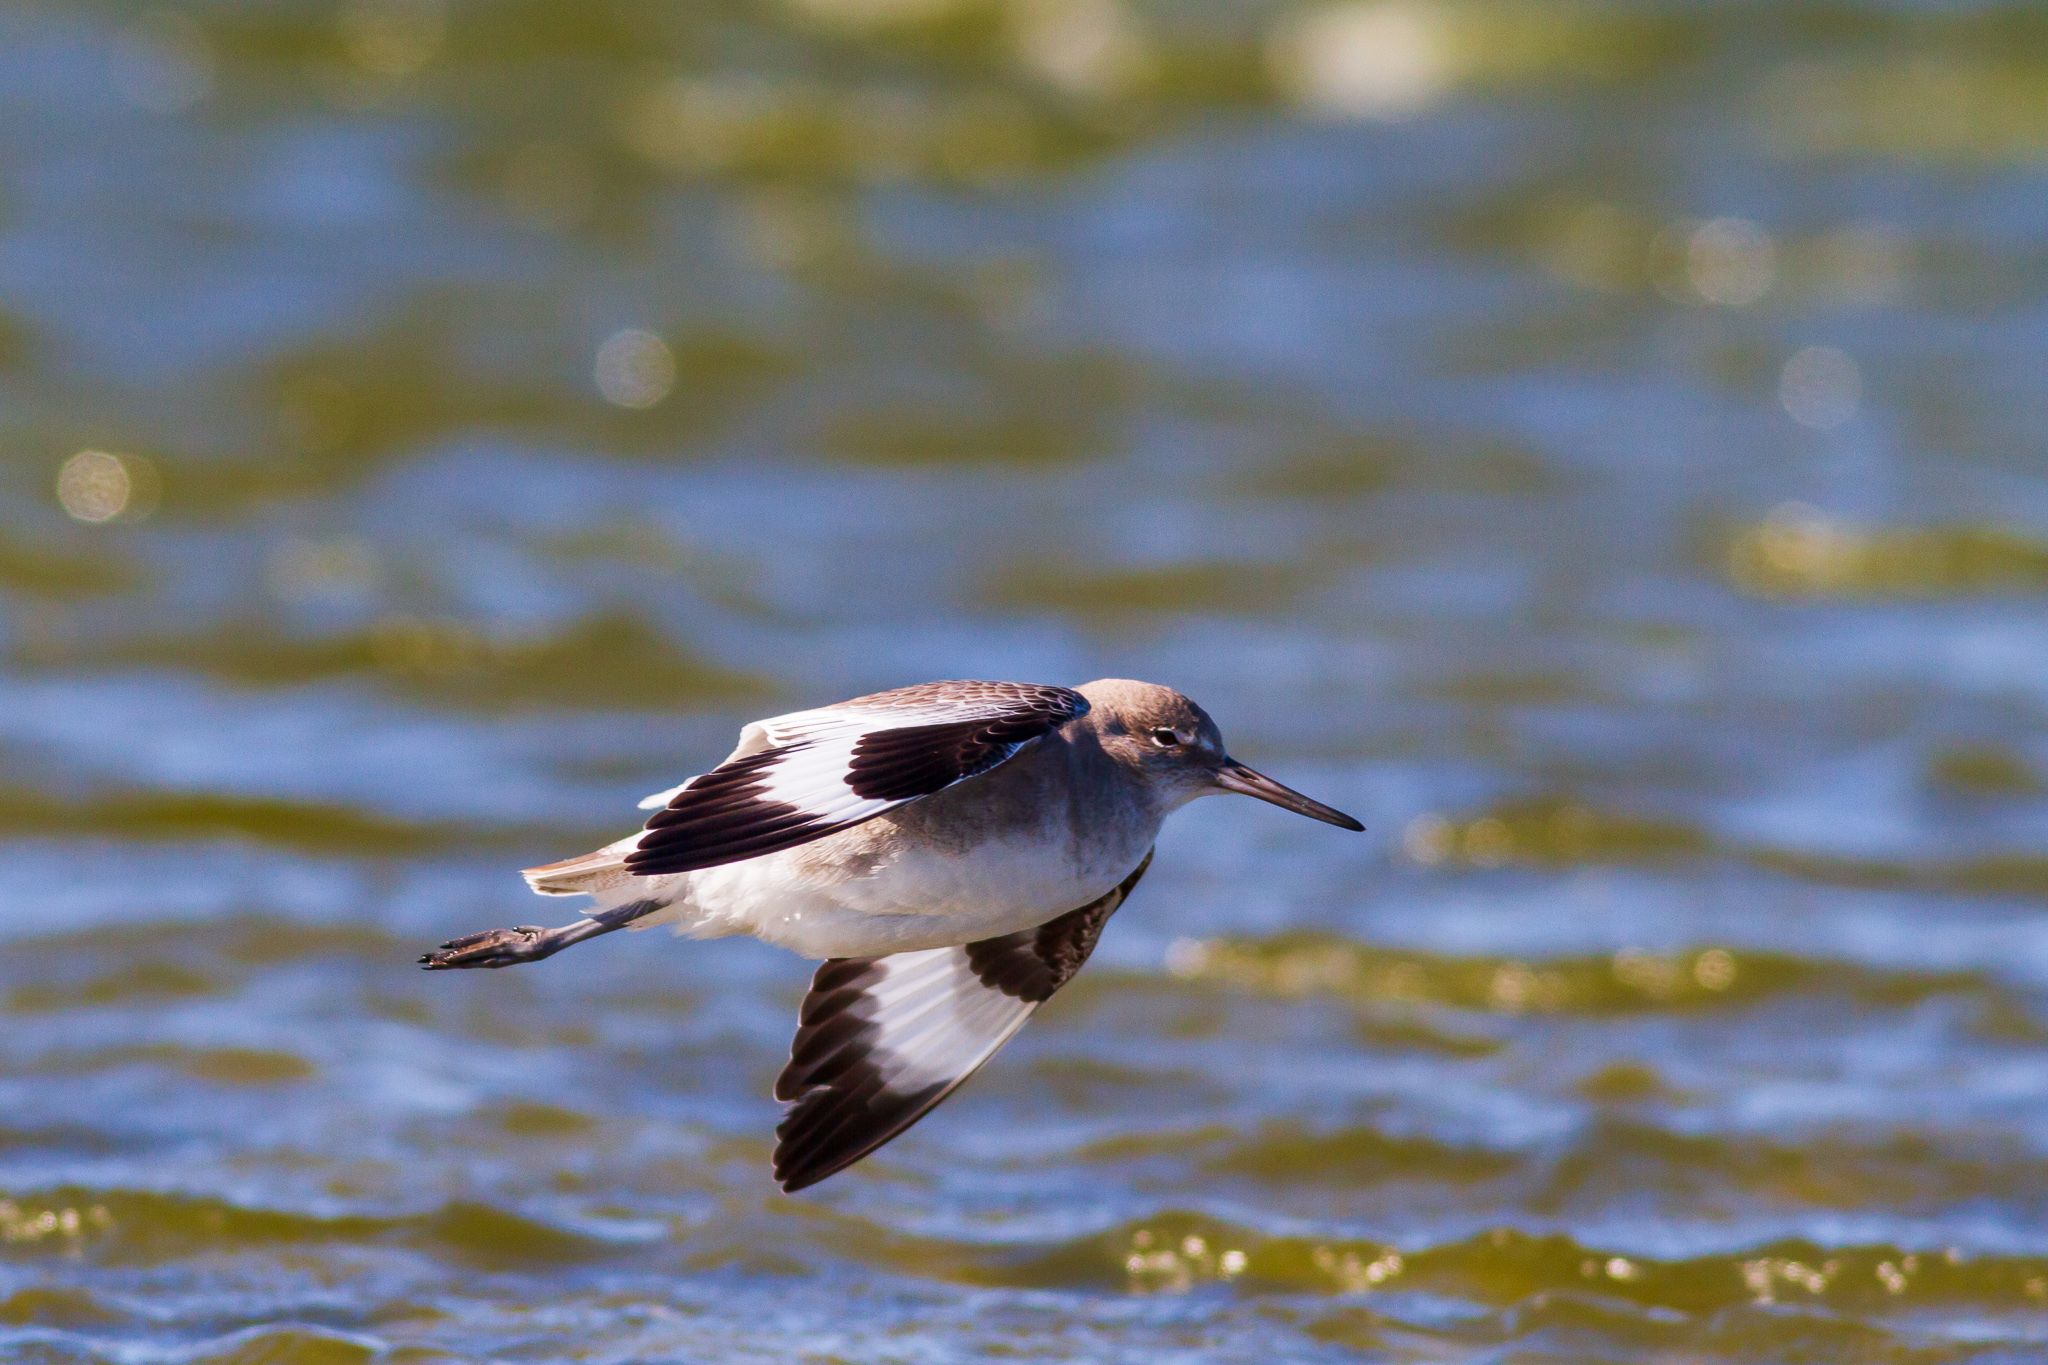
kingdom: Animalia
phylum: Chordata
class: Aves
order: Charadriiformes
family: Scolopacidae
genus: Tringa
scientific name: Tringa semipalmata
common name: Willet
